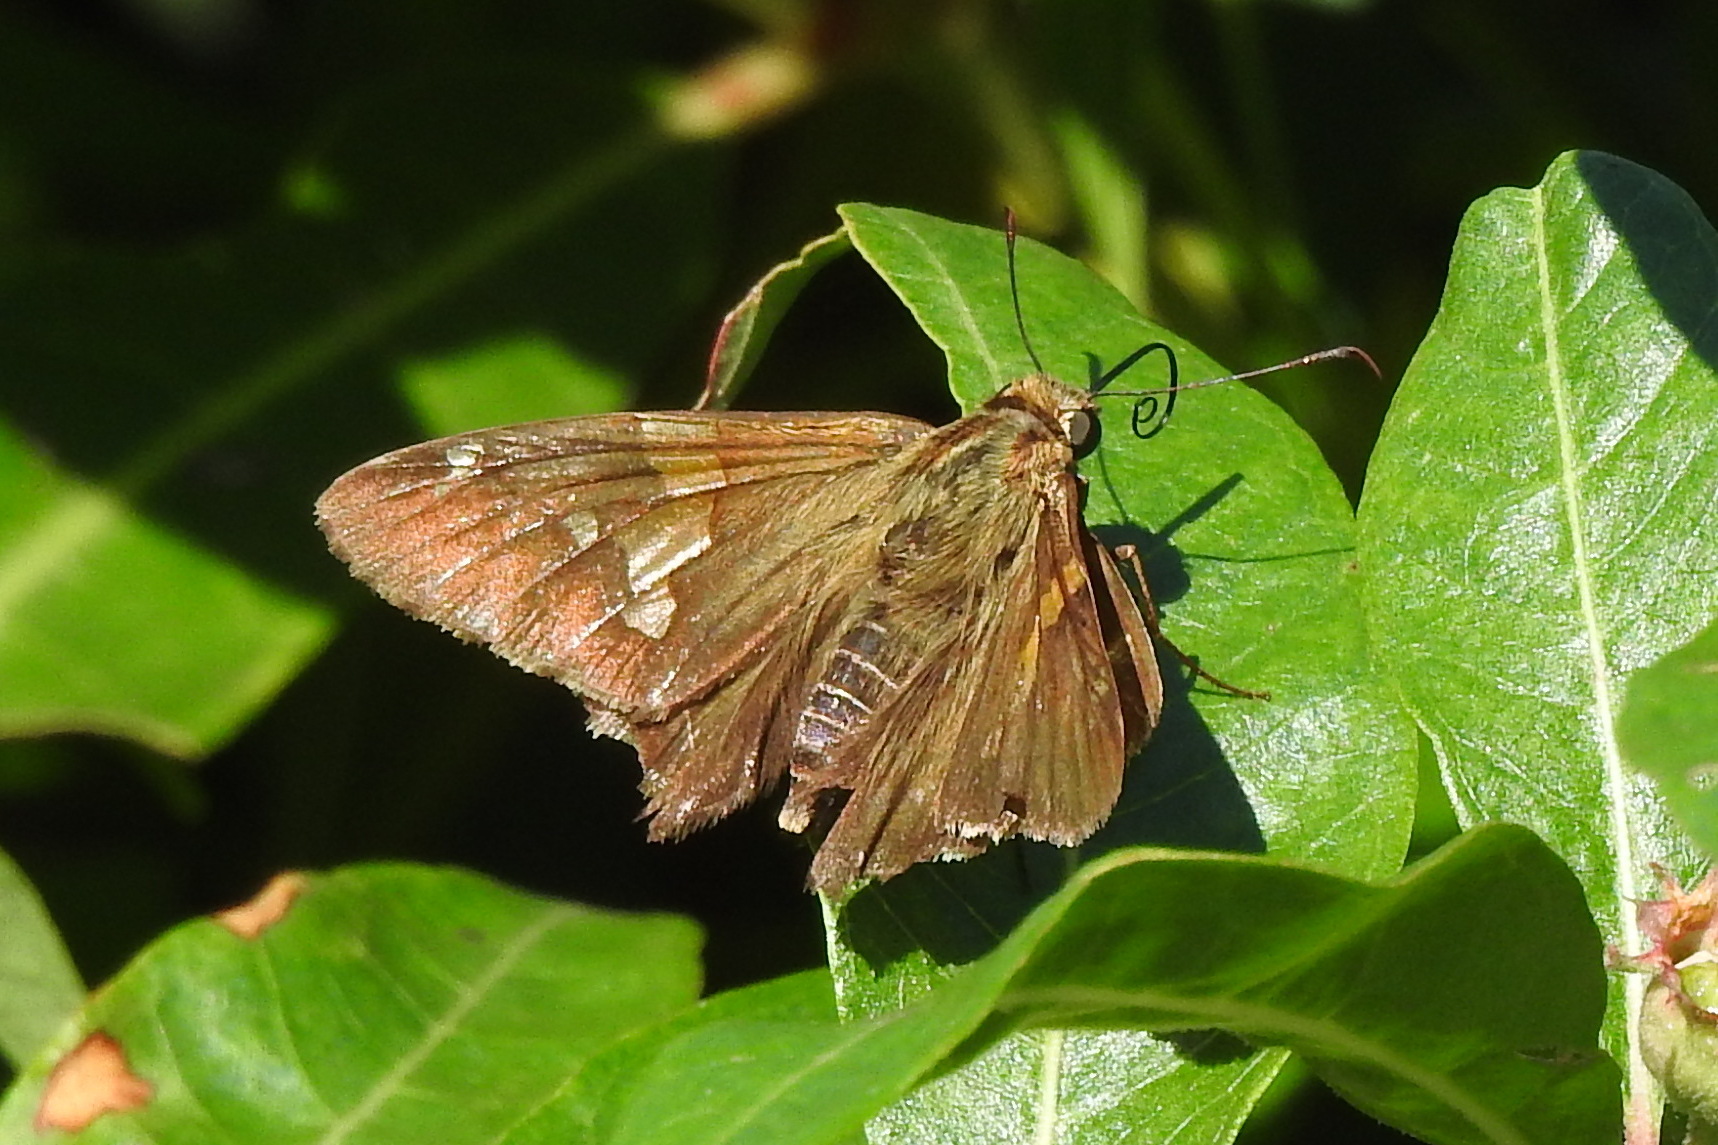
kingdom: Animalia
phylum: Arthropoda
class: Insecta
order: Lepidoptera
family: Hesperiidae
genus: Epargyreus
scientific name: Epargyreus clarus
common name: Silver-spotted skipper
